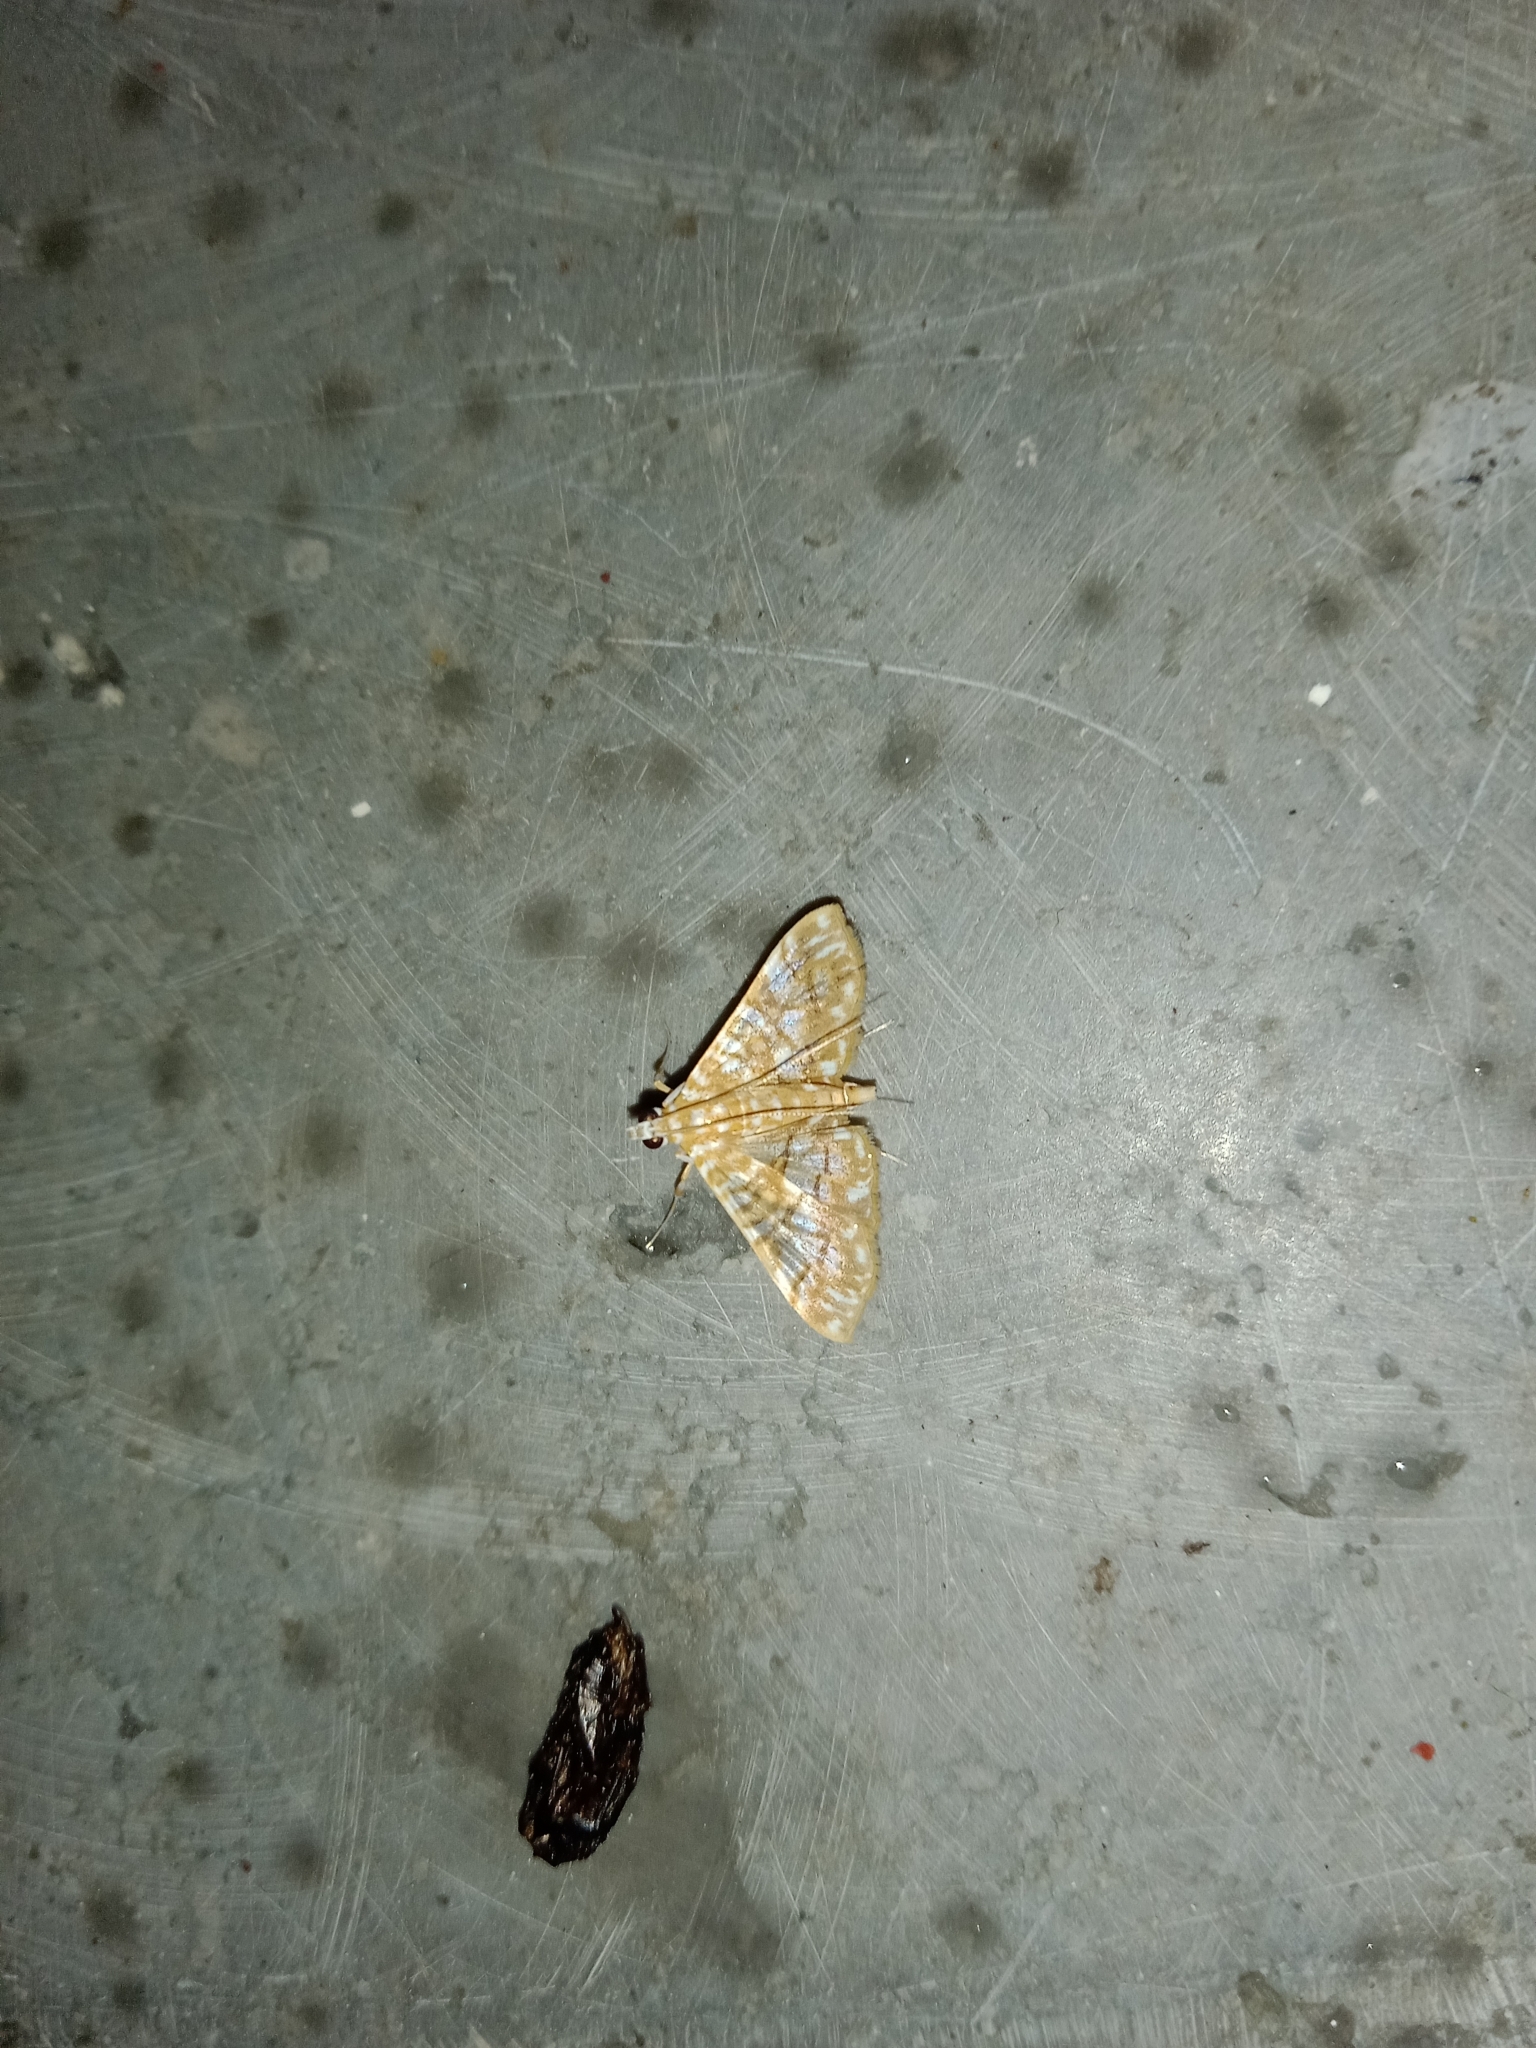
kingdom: Animalia
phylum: Arthropoda
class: Insecta
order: Lepidoptera
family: Crambidae
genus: Synclera
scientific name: Synclera traducalis
